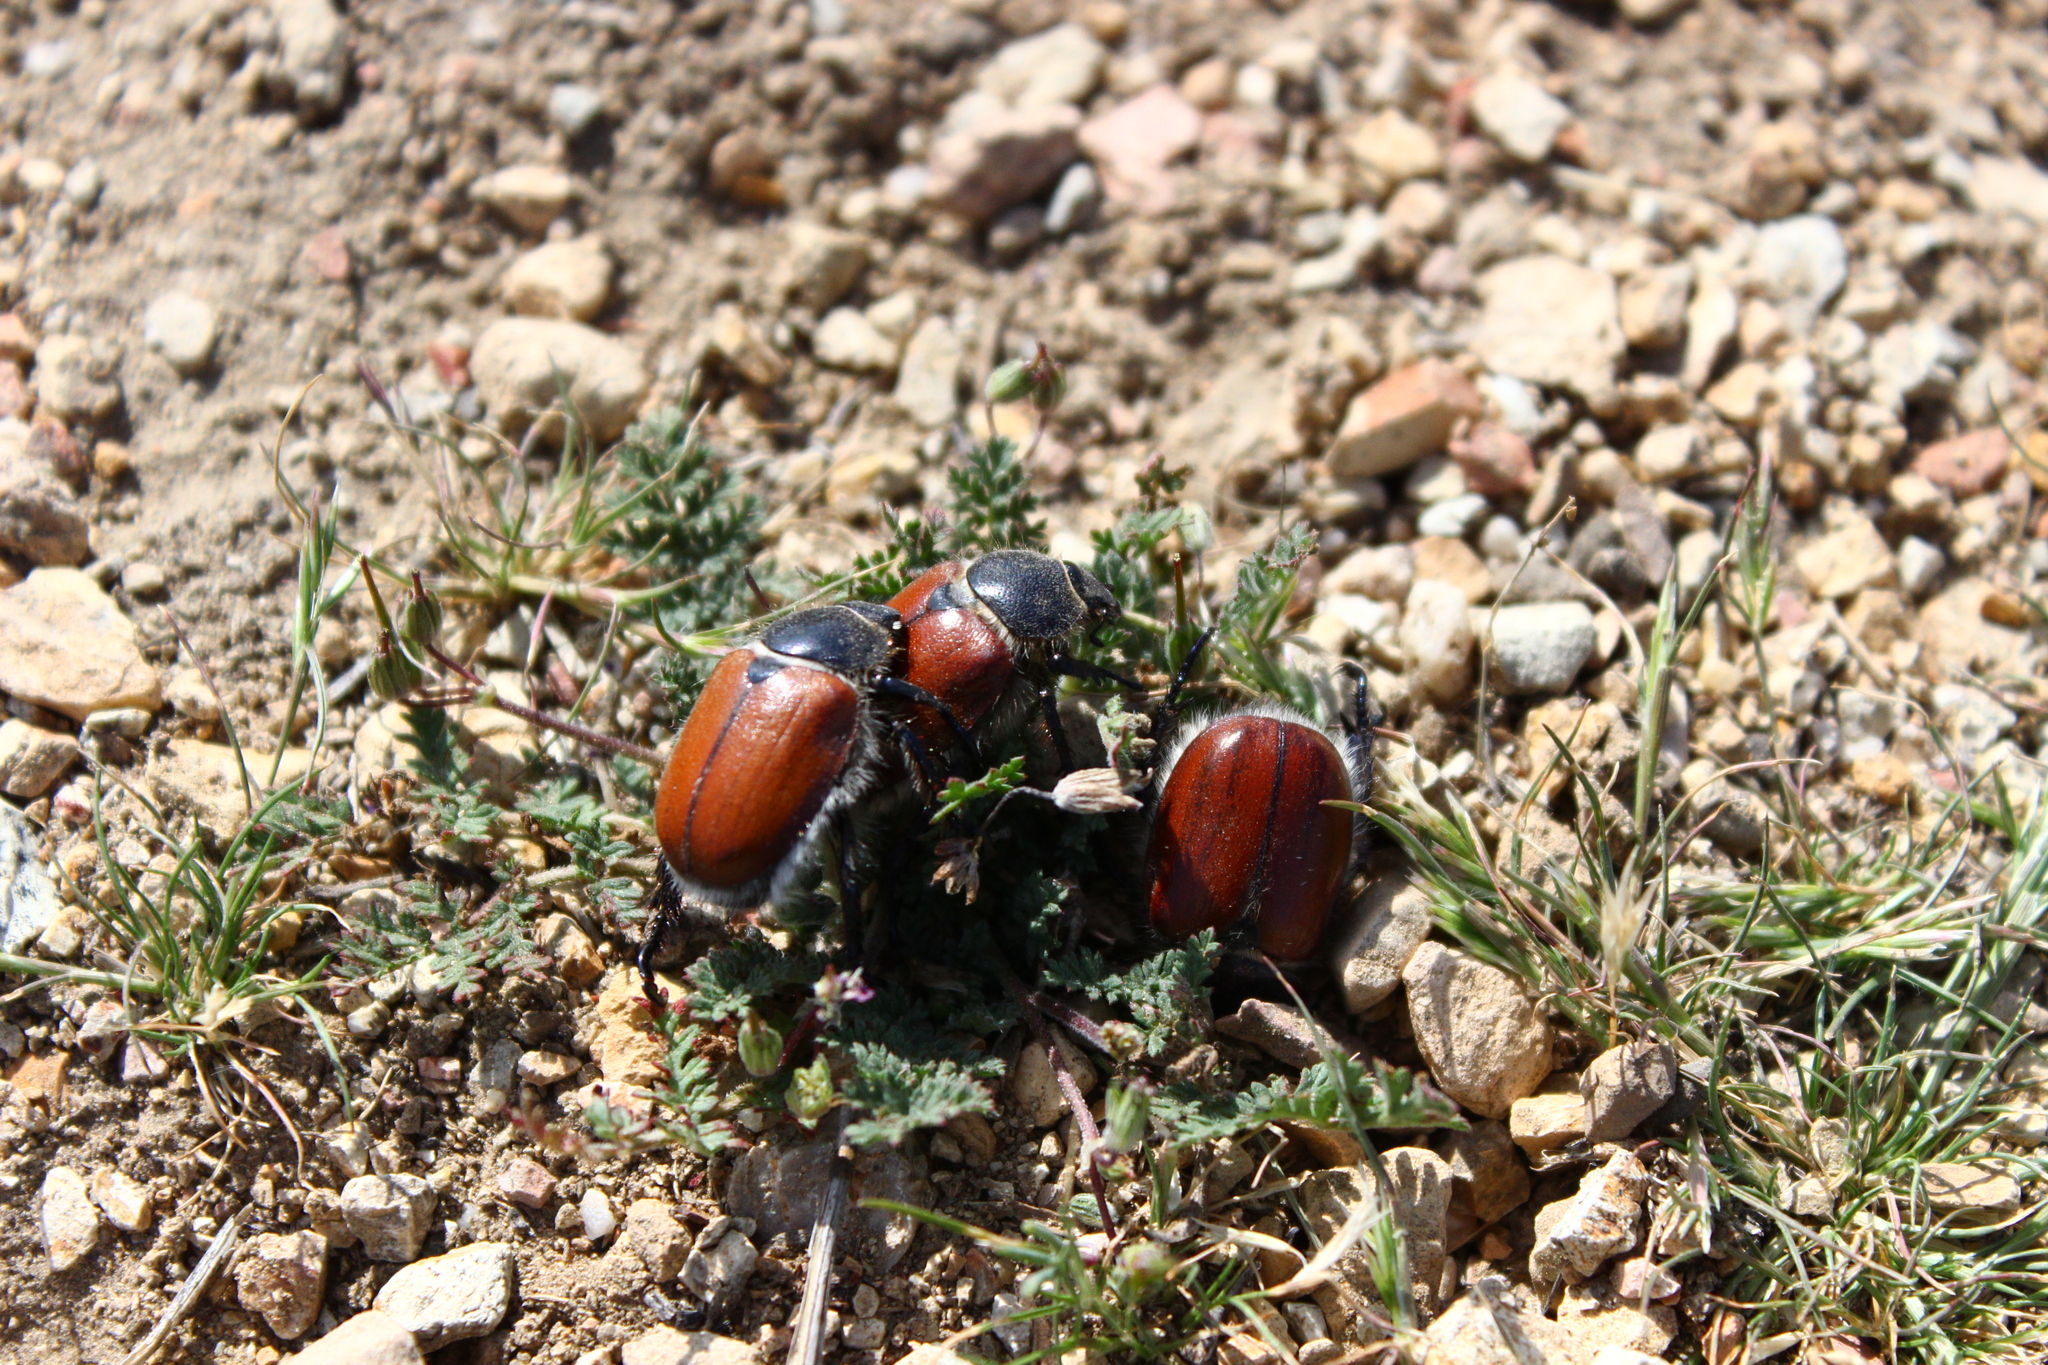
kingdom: Animalia
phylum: Arthropoda
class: Insecta
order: Coleoptera
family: Scarabaeidae
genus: Paracotalpa
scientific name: Paracotalpa ursina
